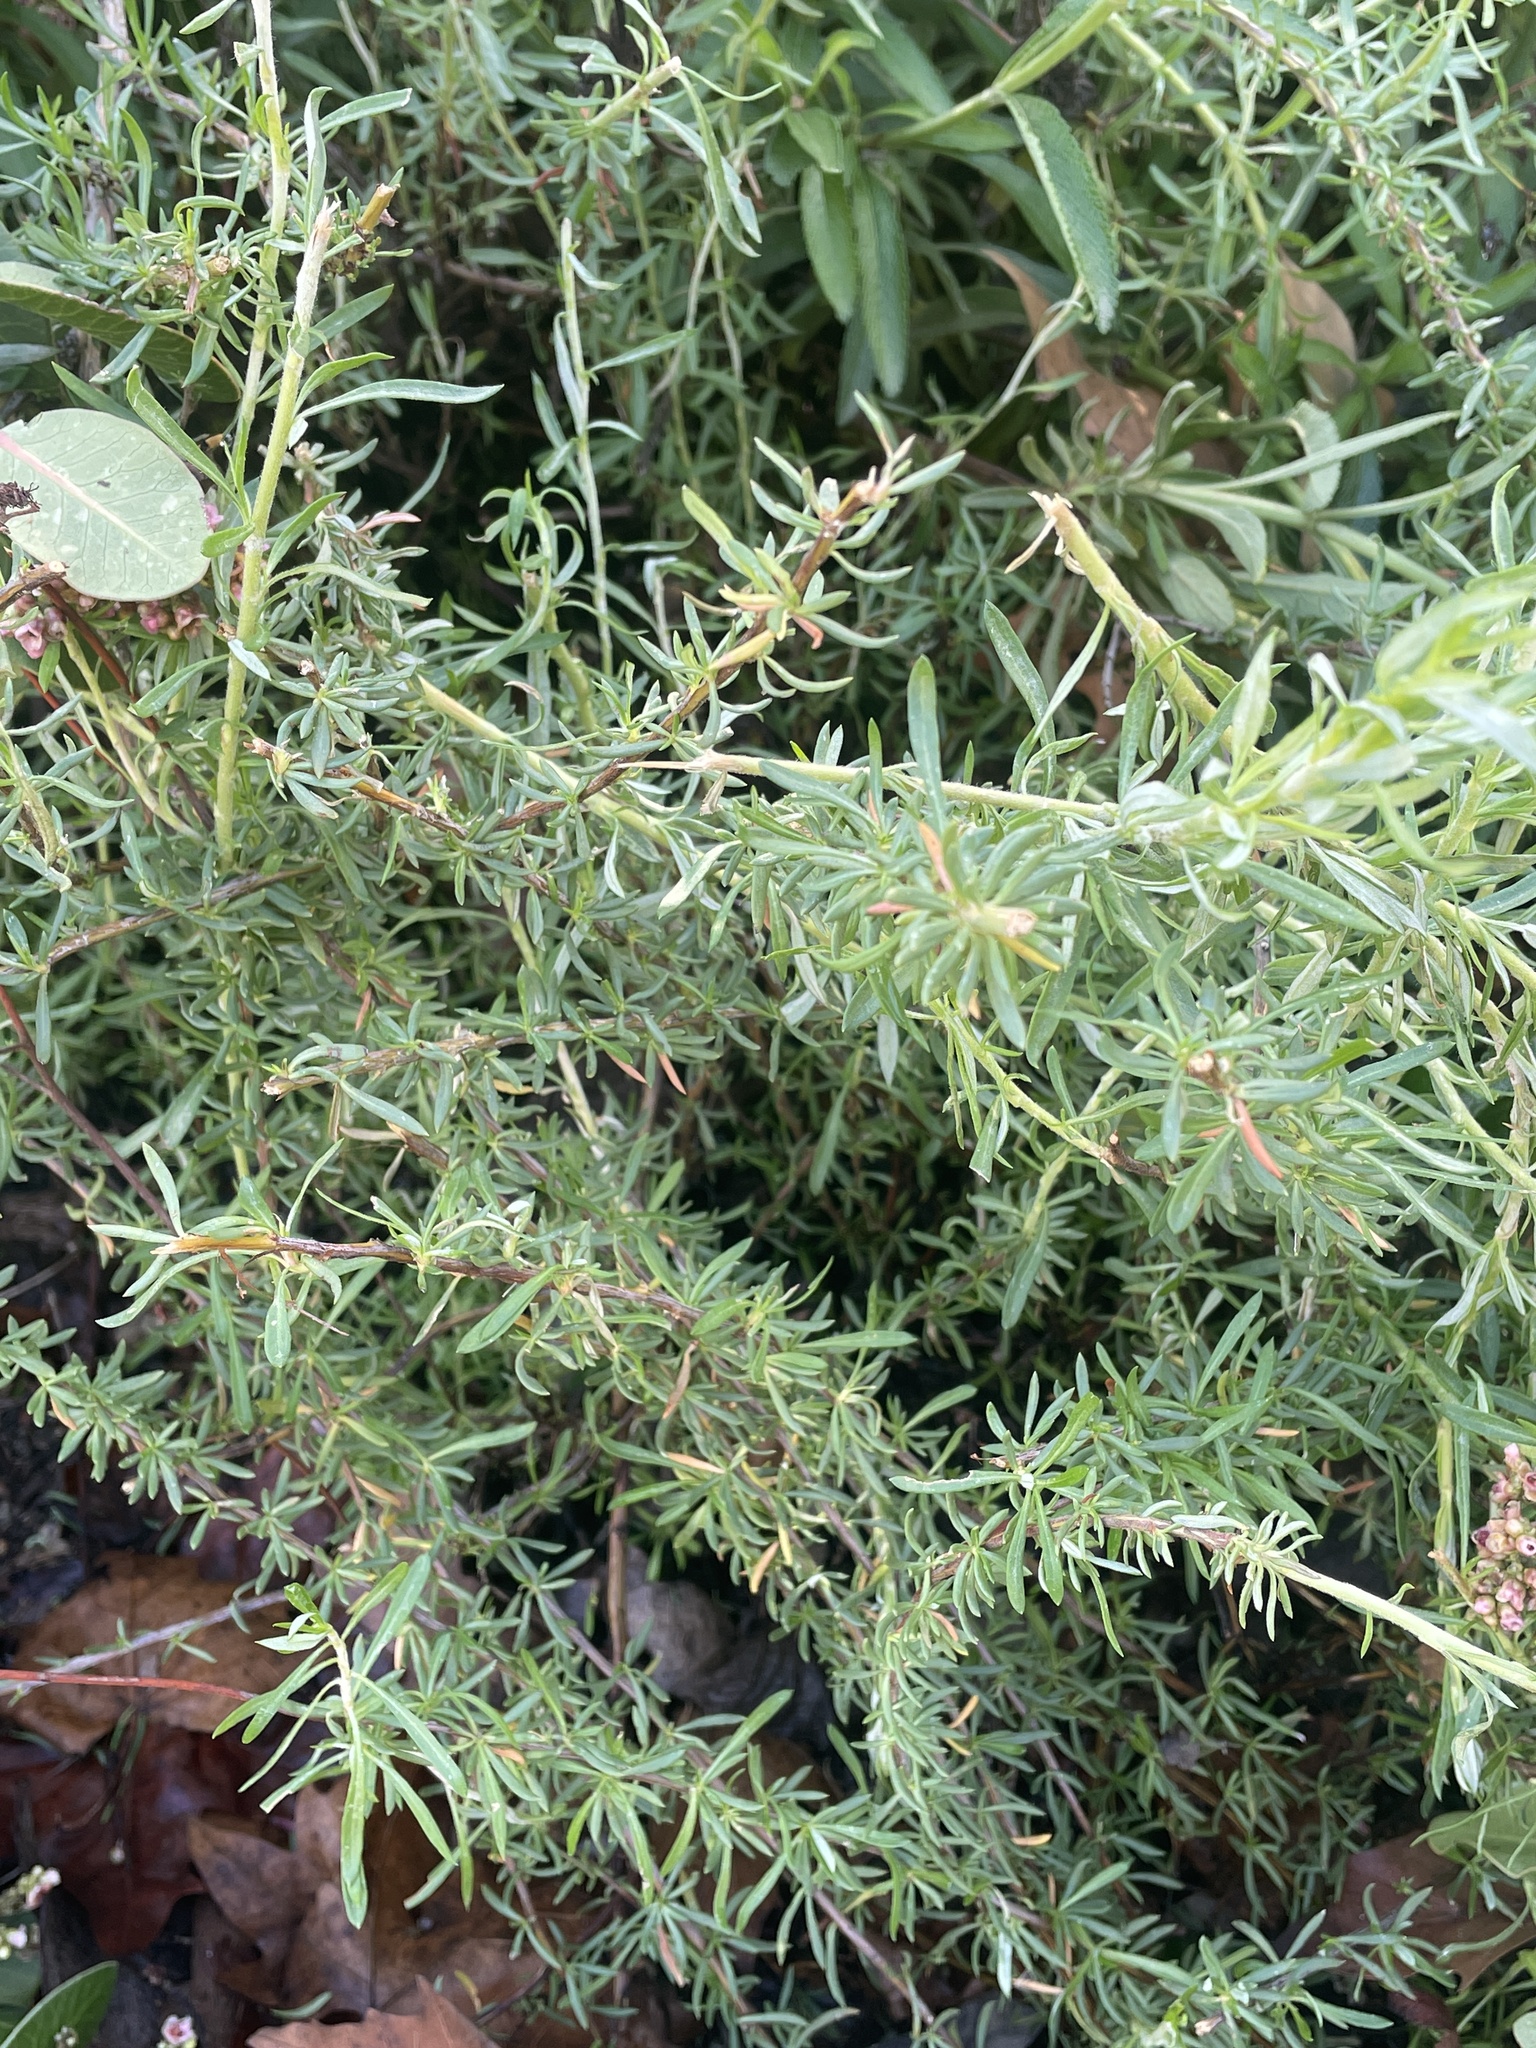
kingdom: Plantae
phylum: Tracheophyta
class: Magnoliopsida
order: Caryophyllales
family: Polygonaceae
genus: Eriogonum
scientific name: Eriogonum fasciculatum
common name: California wild buckwheat
